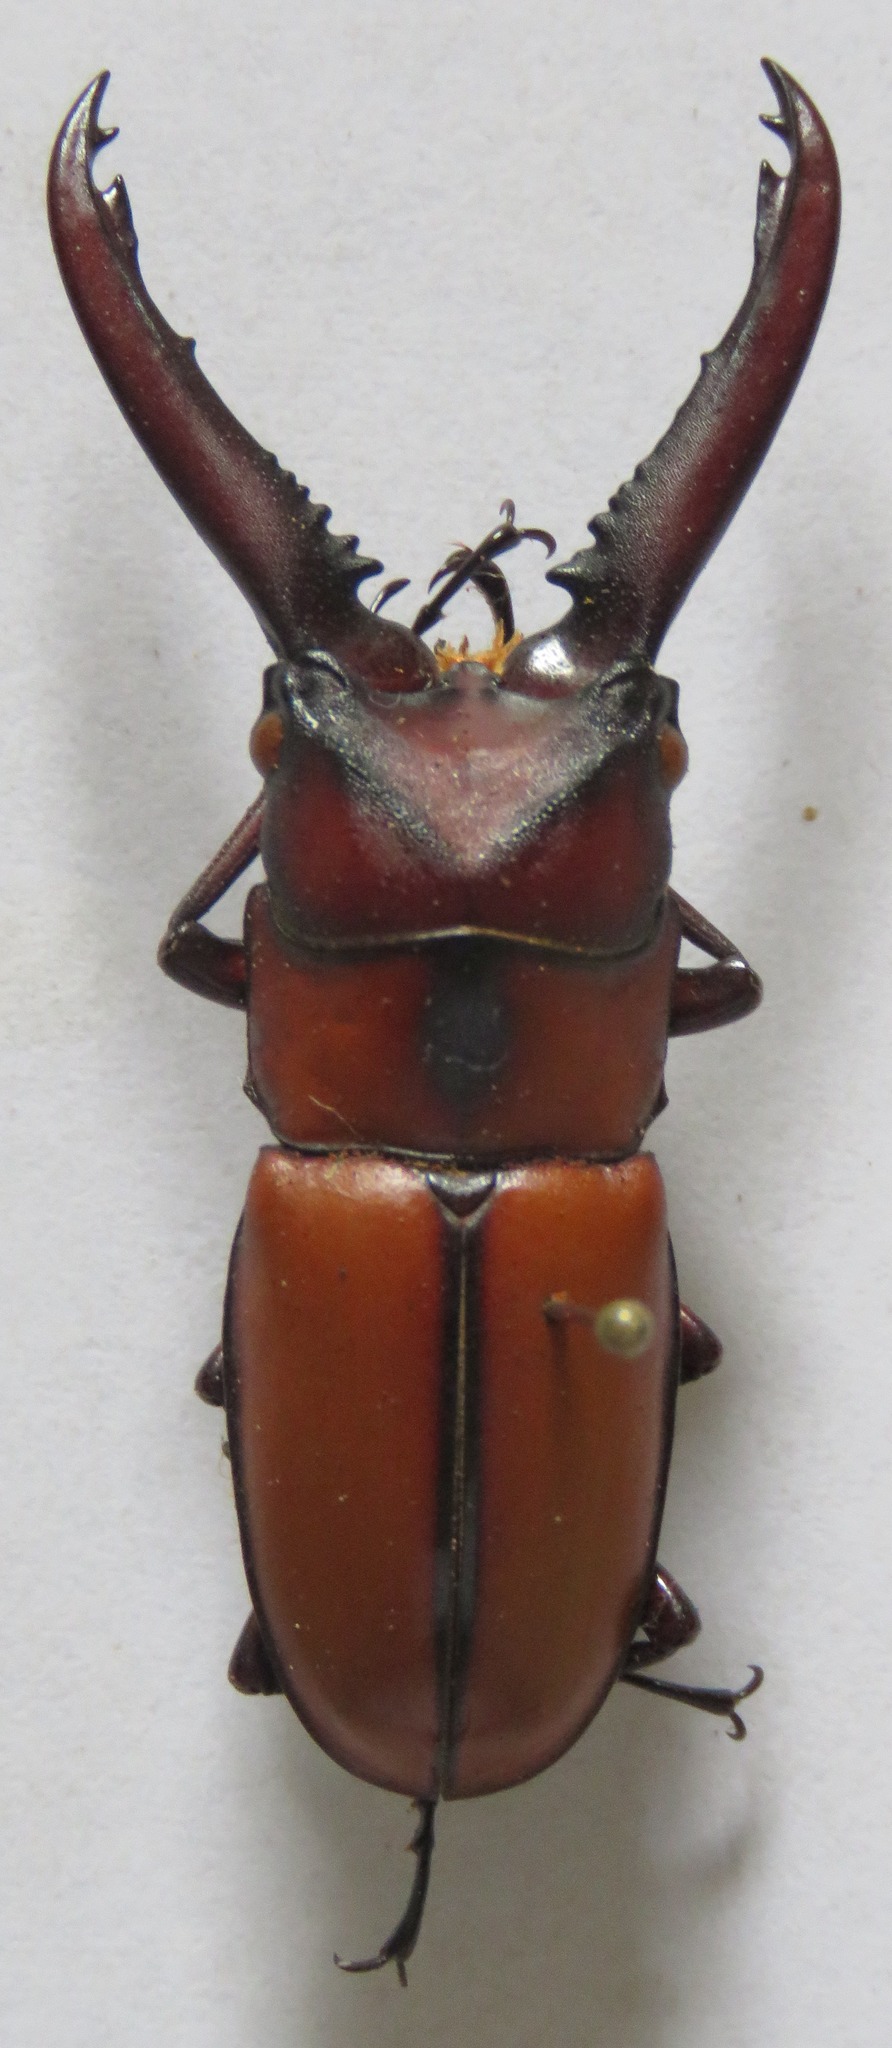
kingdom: Animalia
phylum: Arthropoda
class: Insecta
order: Coleoptera
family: Lucanidae
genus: Prosopocoilus
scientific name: Prosopocoilus mohnikei
